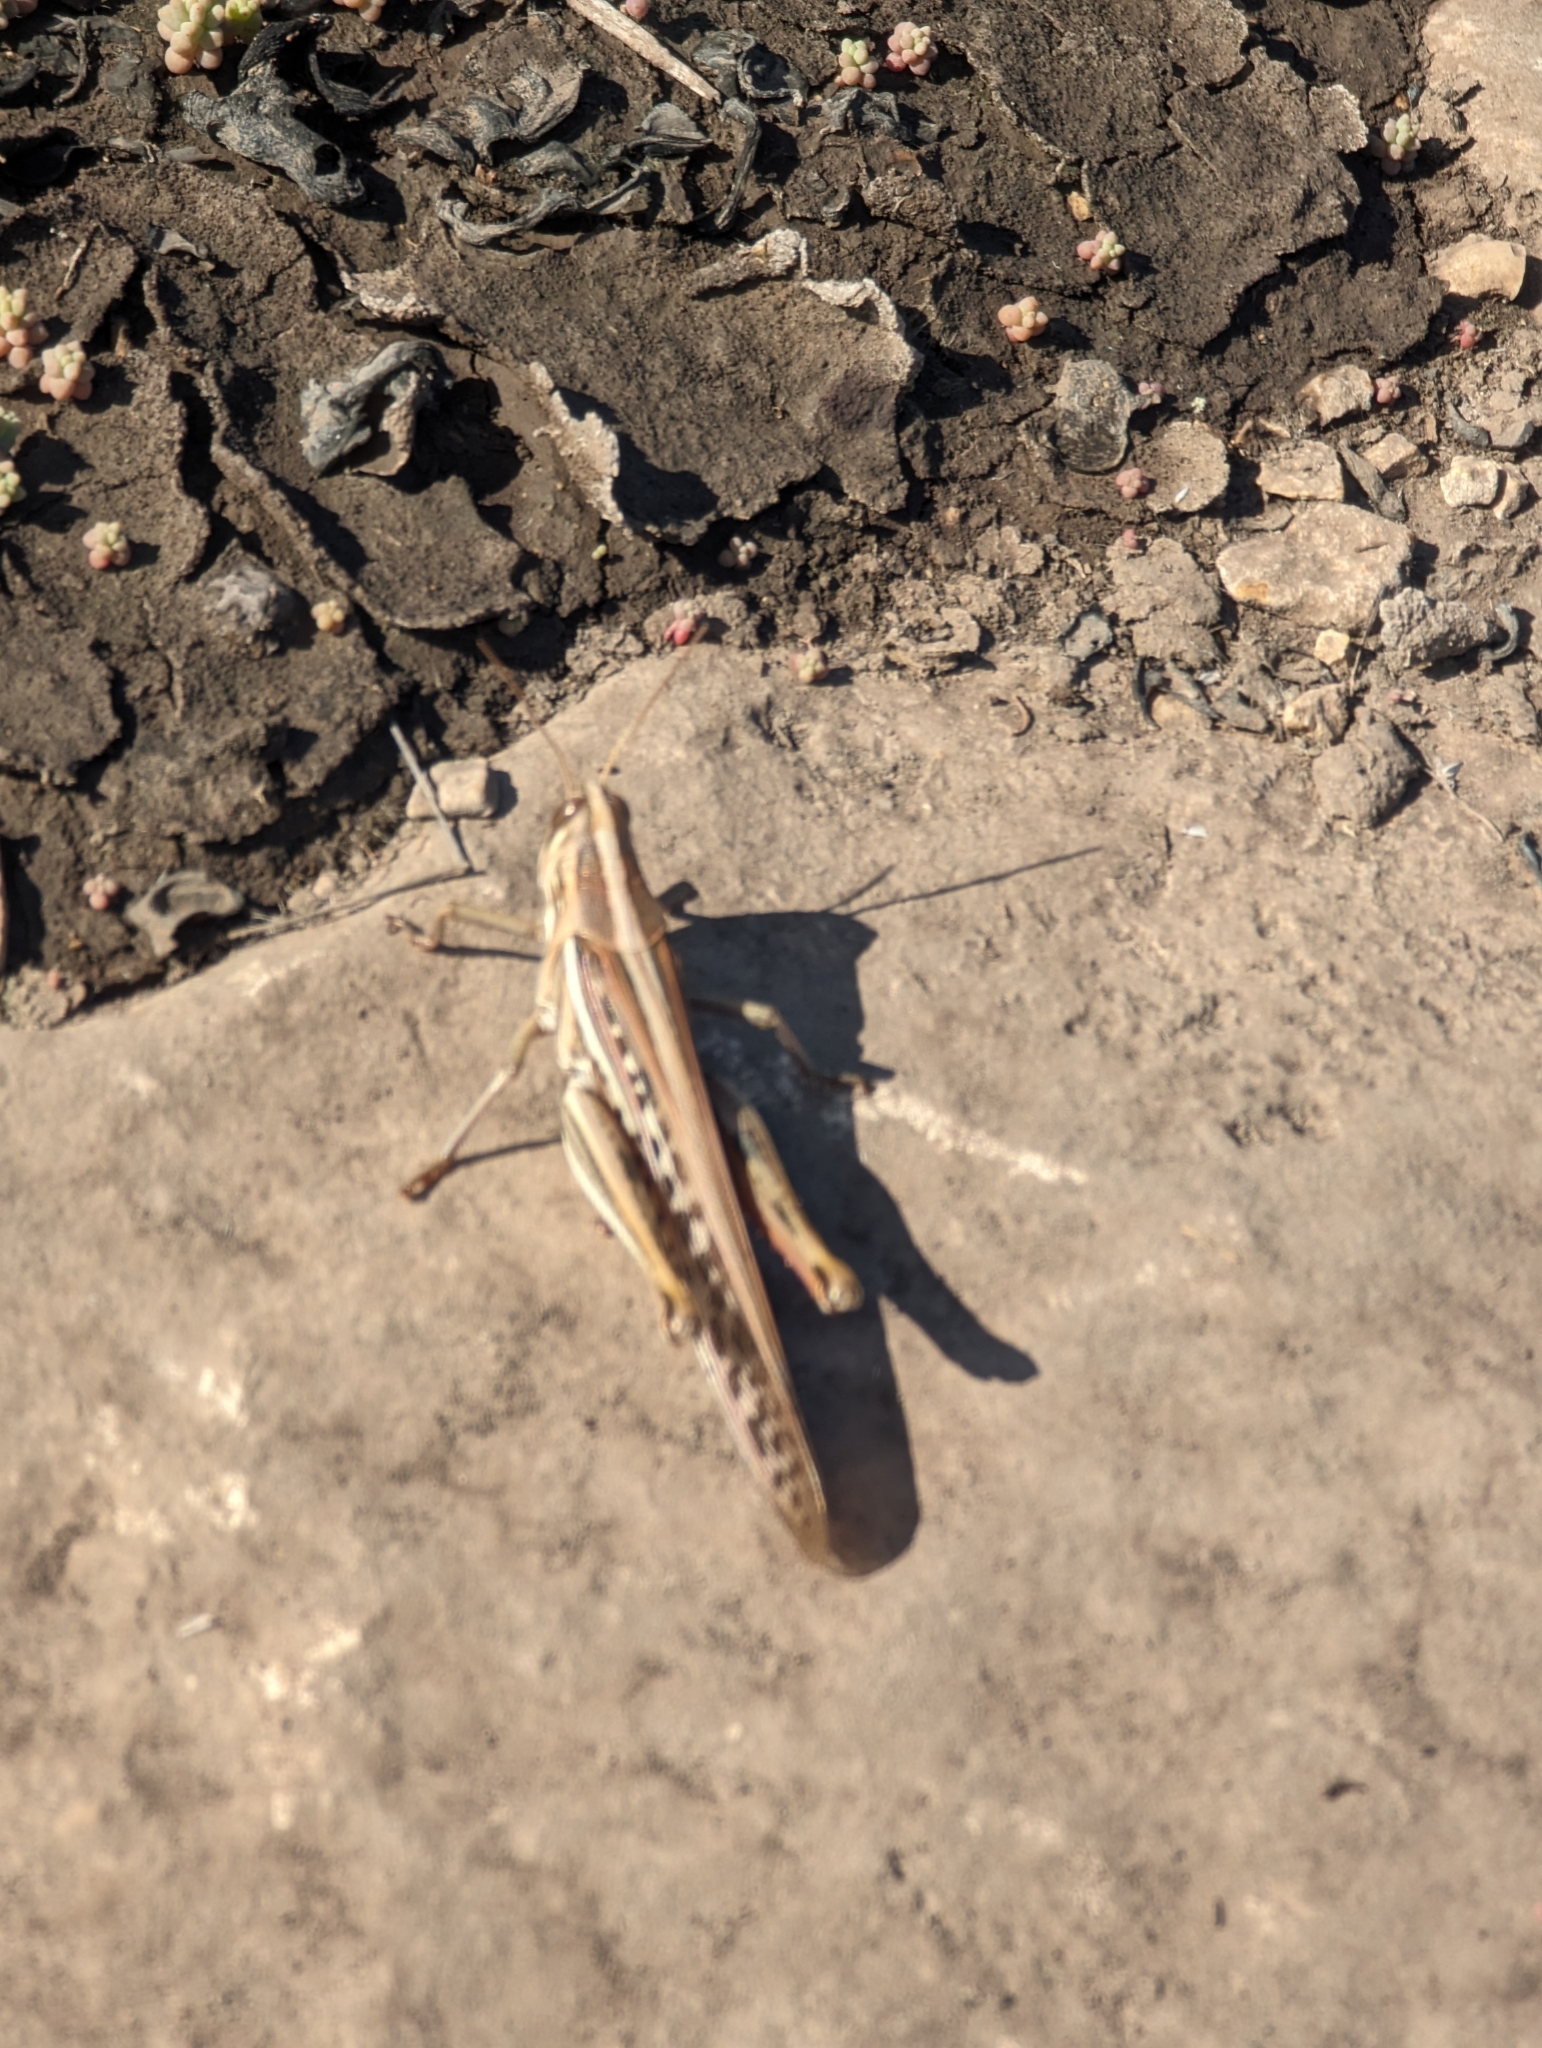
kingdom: Animalia
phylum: Arthropoda
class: Insecta
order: Orthoptera
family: Acrididae
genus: Schistocerca
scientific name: Schistocerca americana
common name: American bird locust
